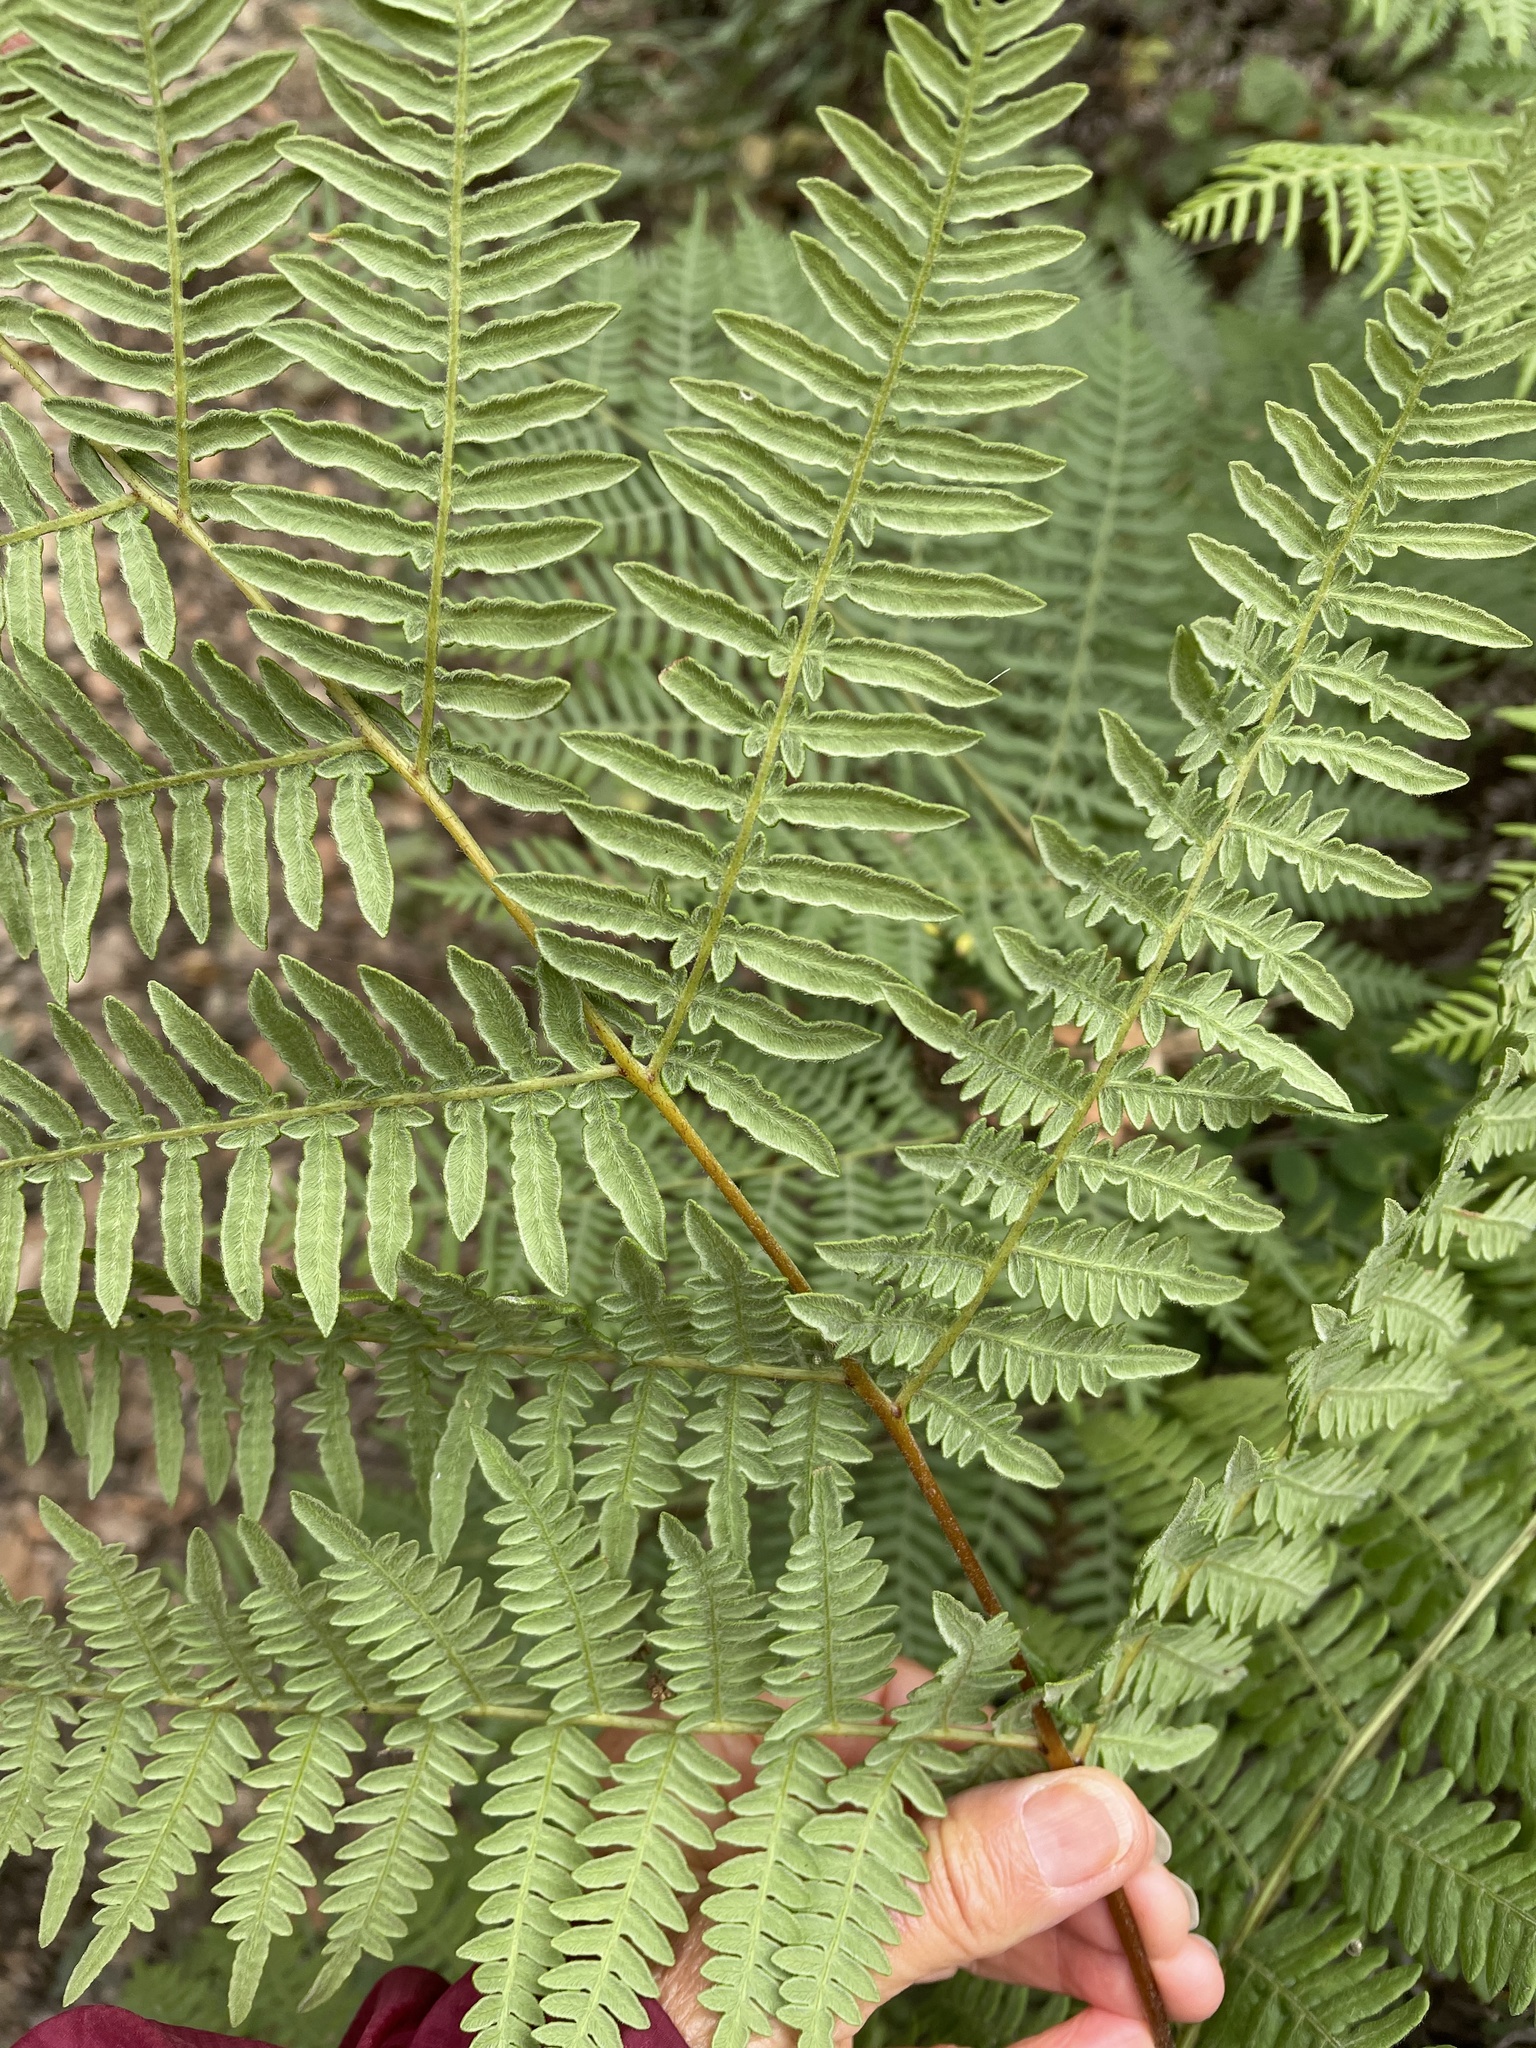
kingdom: Plantae
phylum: Tracheophyta
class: Polypodiopsida
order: Polypodiales
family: Dennstaedtiaceae
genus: Pteridium
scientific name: Pteridium aquilinum
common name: Bracken
